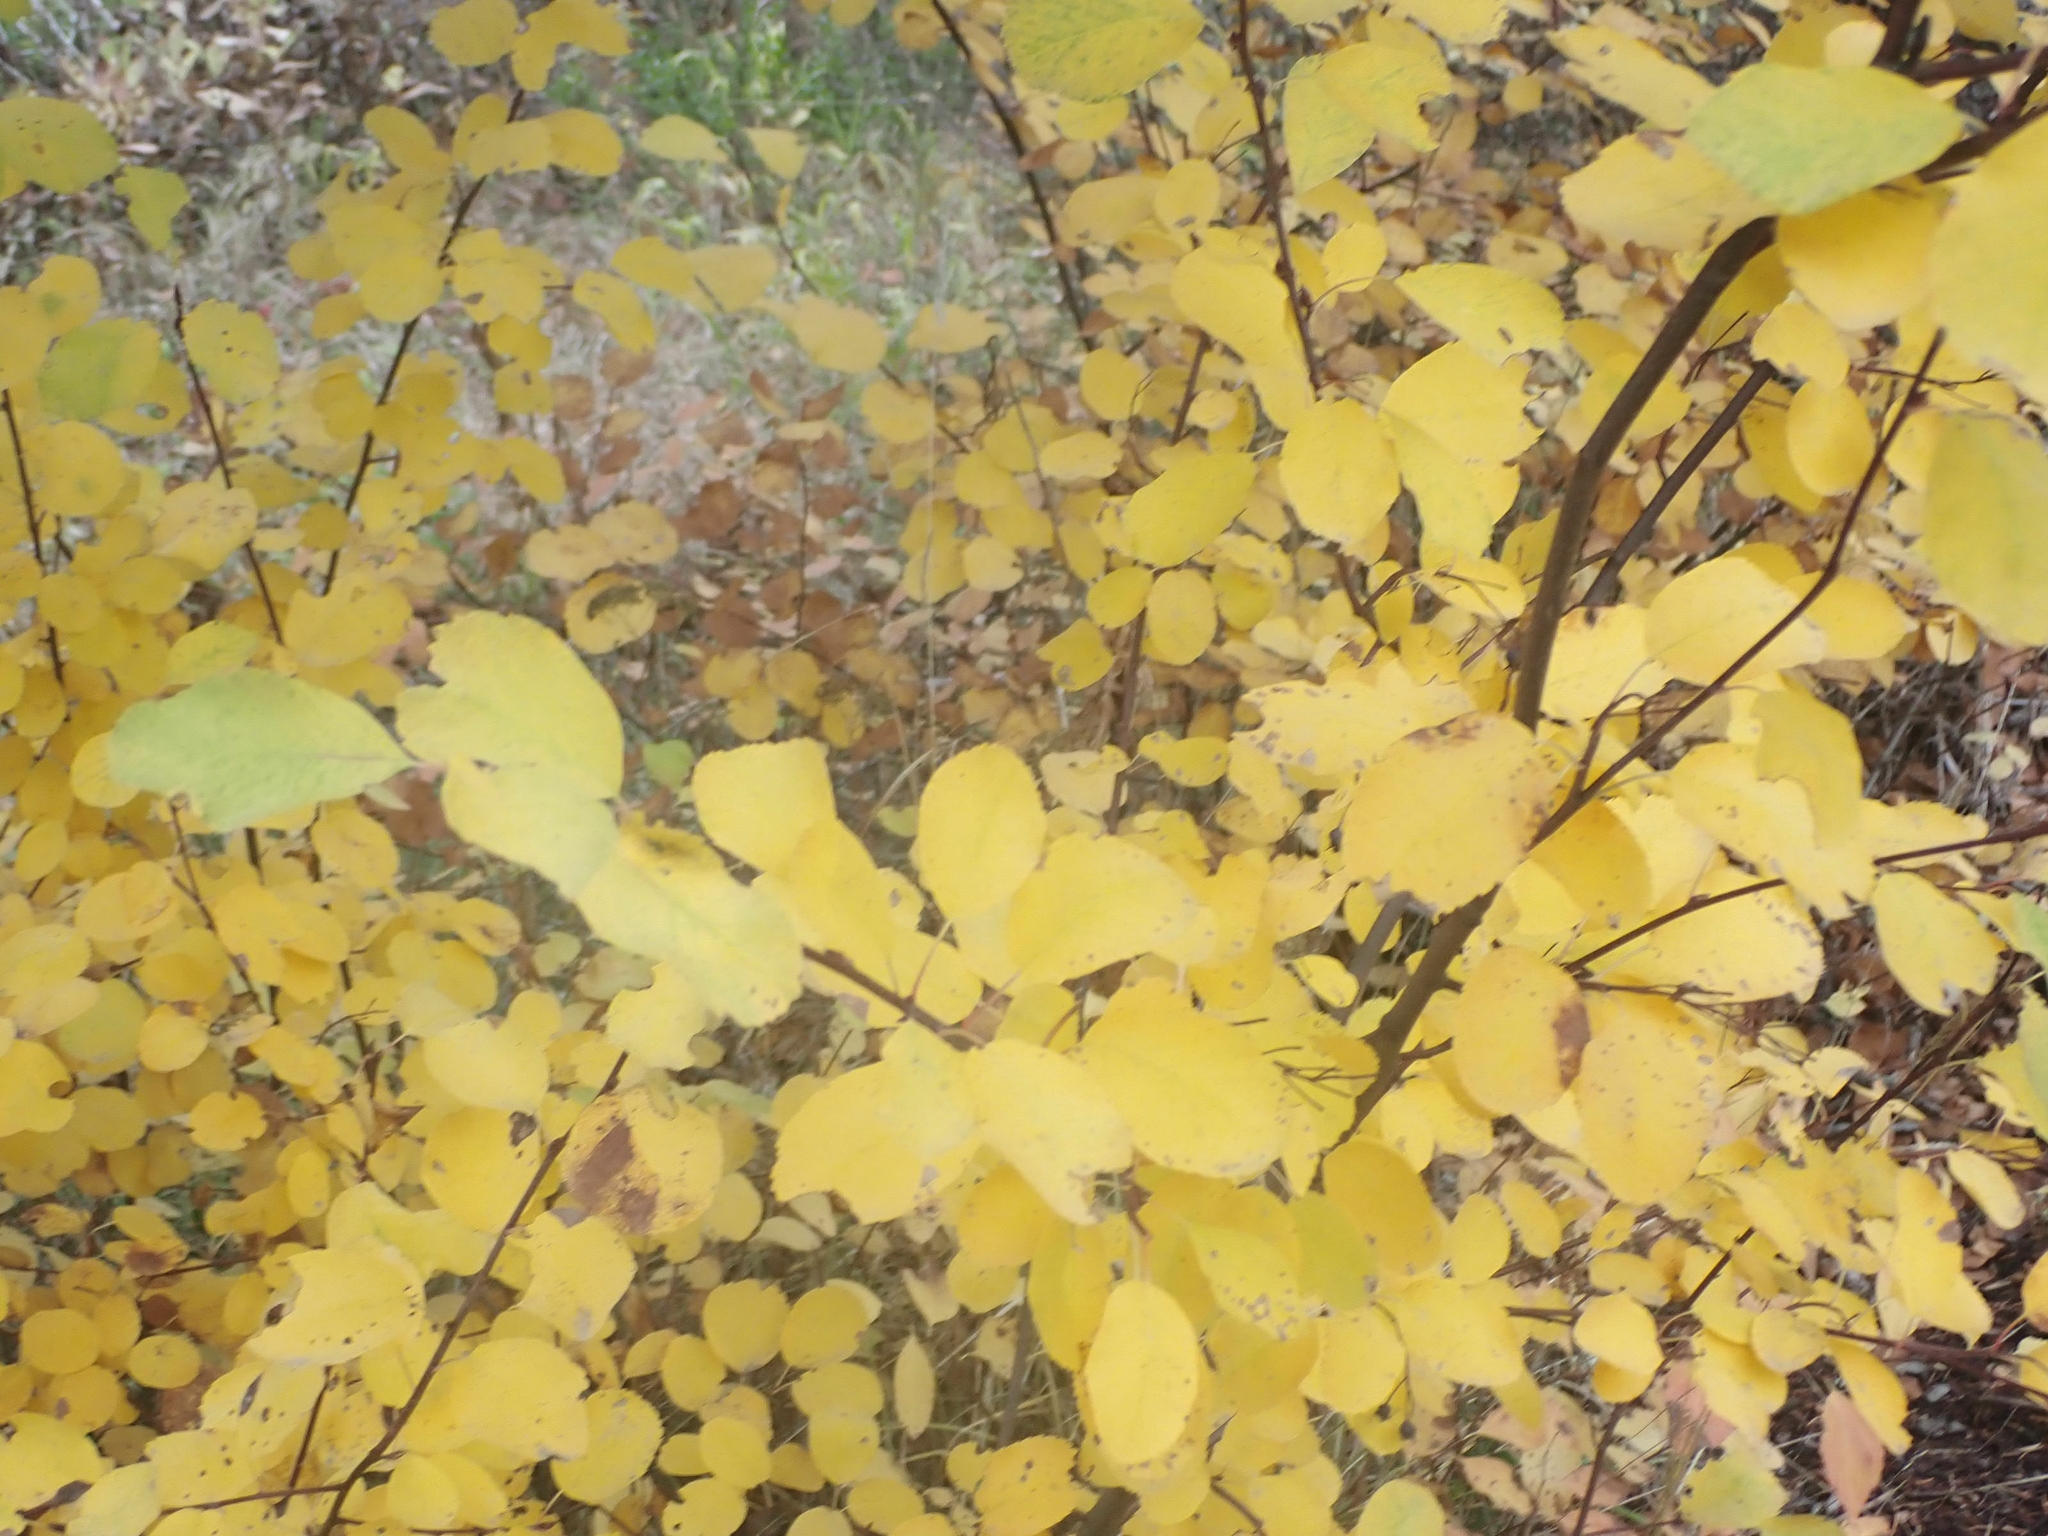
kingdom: Plantae
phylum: Tracheophyta
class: Magnoliopsida
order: Rosales
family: Rosaceae
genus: Amelanchier
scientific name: Amelanchier alnifolia
